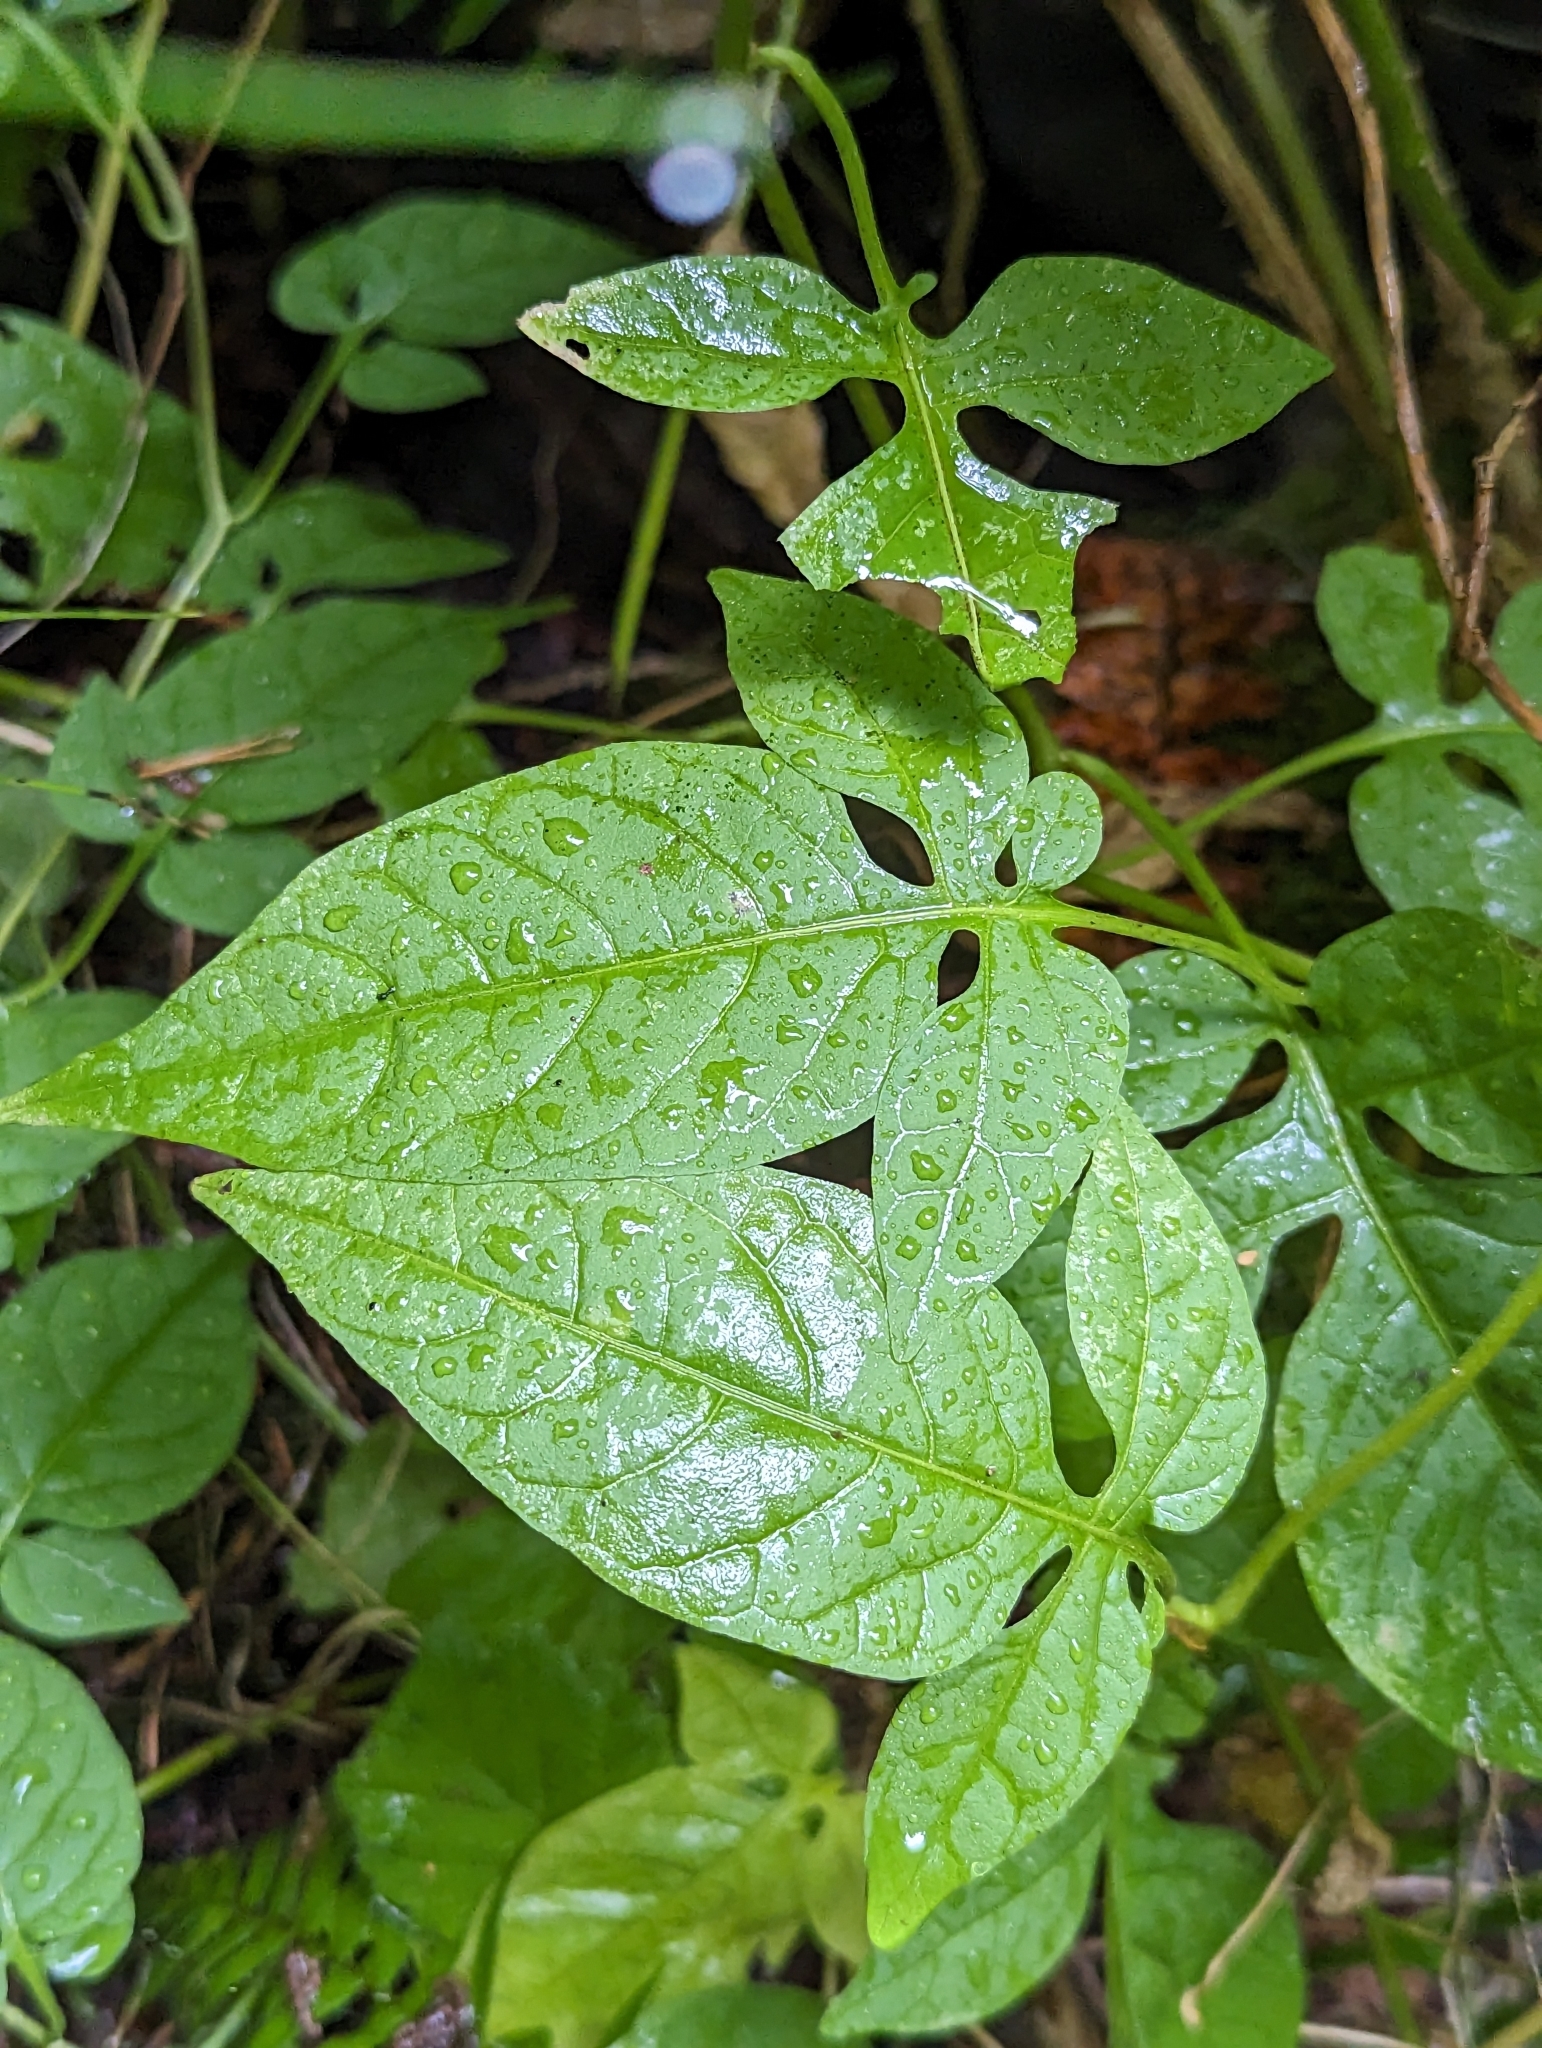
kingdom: Plantae
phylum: Tracheophyta
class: Magnoliopsida
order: Solanales
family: Solanaceae
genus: Solanum
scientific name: Solanum dulcamara
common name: Climbing nightshade
